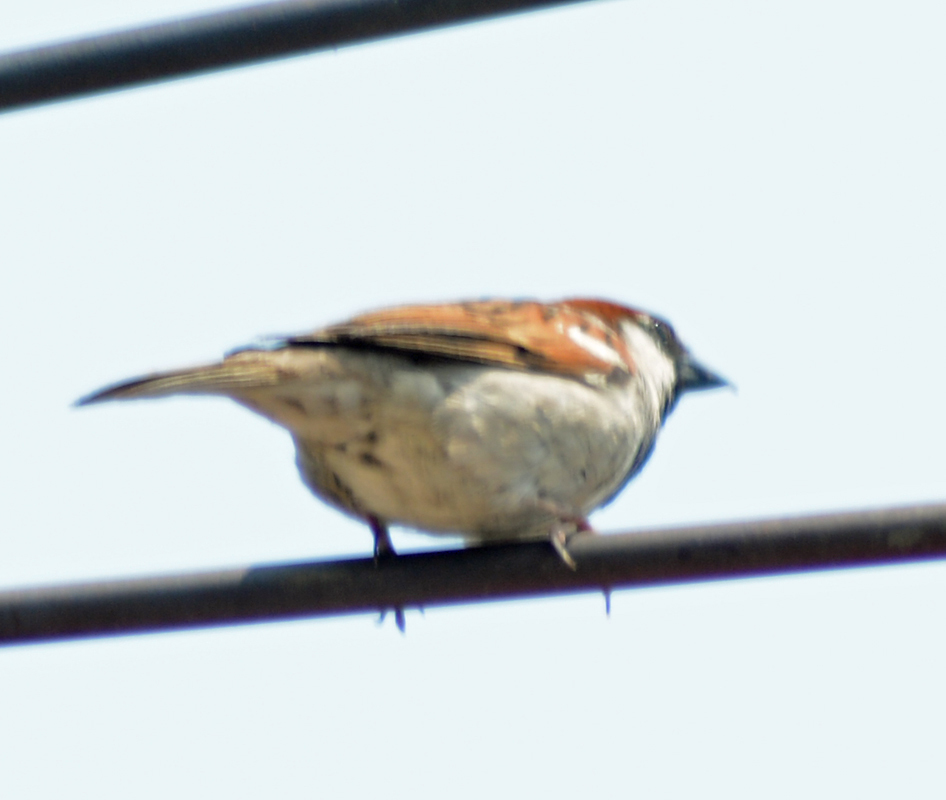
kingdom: Animalia
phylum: Chordata
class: Aves
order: Passeriformes
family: Passeridae
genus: Passer
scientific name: Passer domesticus
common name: House sparrow
